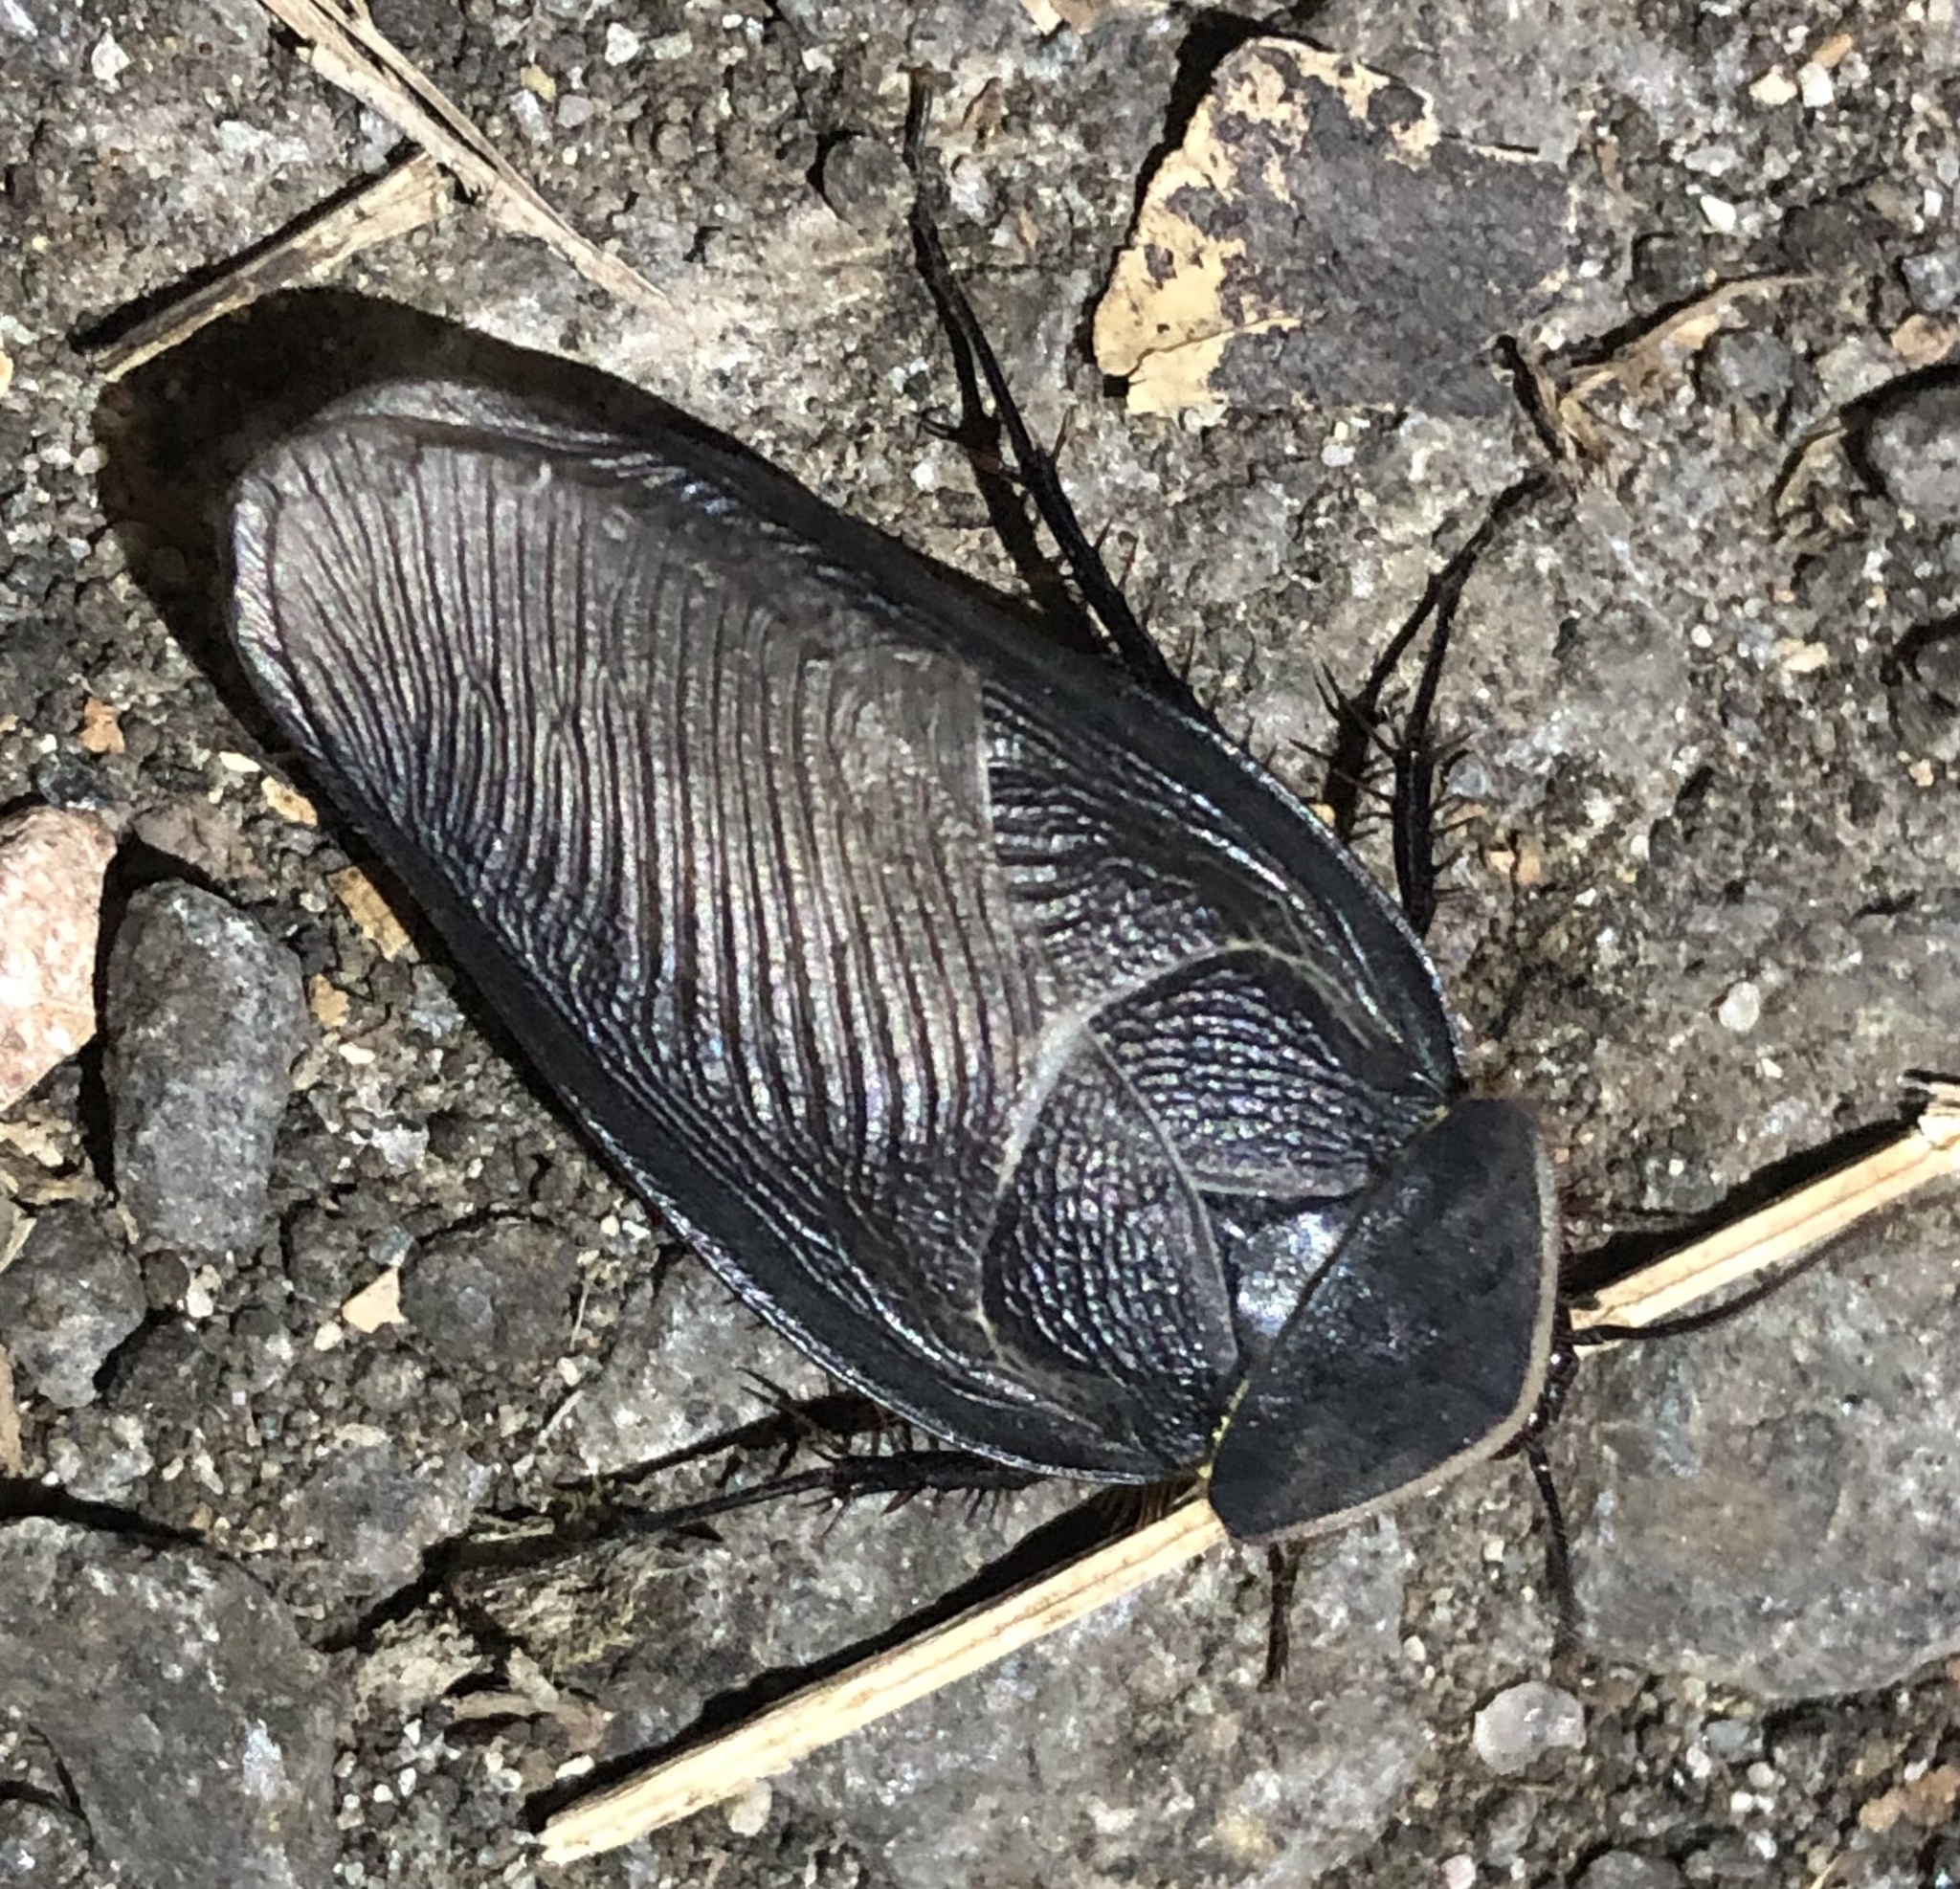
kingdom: Animalia
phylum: Arthropoda
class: Insecta
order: Blattodea
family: Corydiidae
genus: Polyphaga
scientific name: Polyphaga aegyptiaca
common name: Egyptian cockroach
